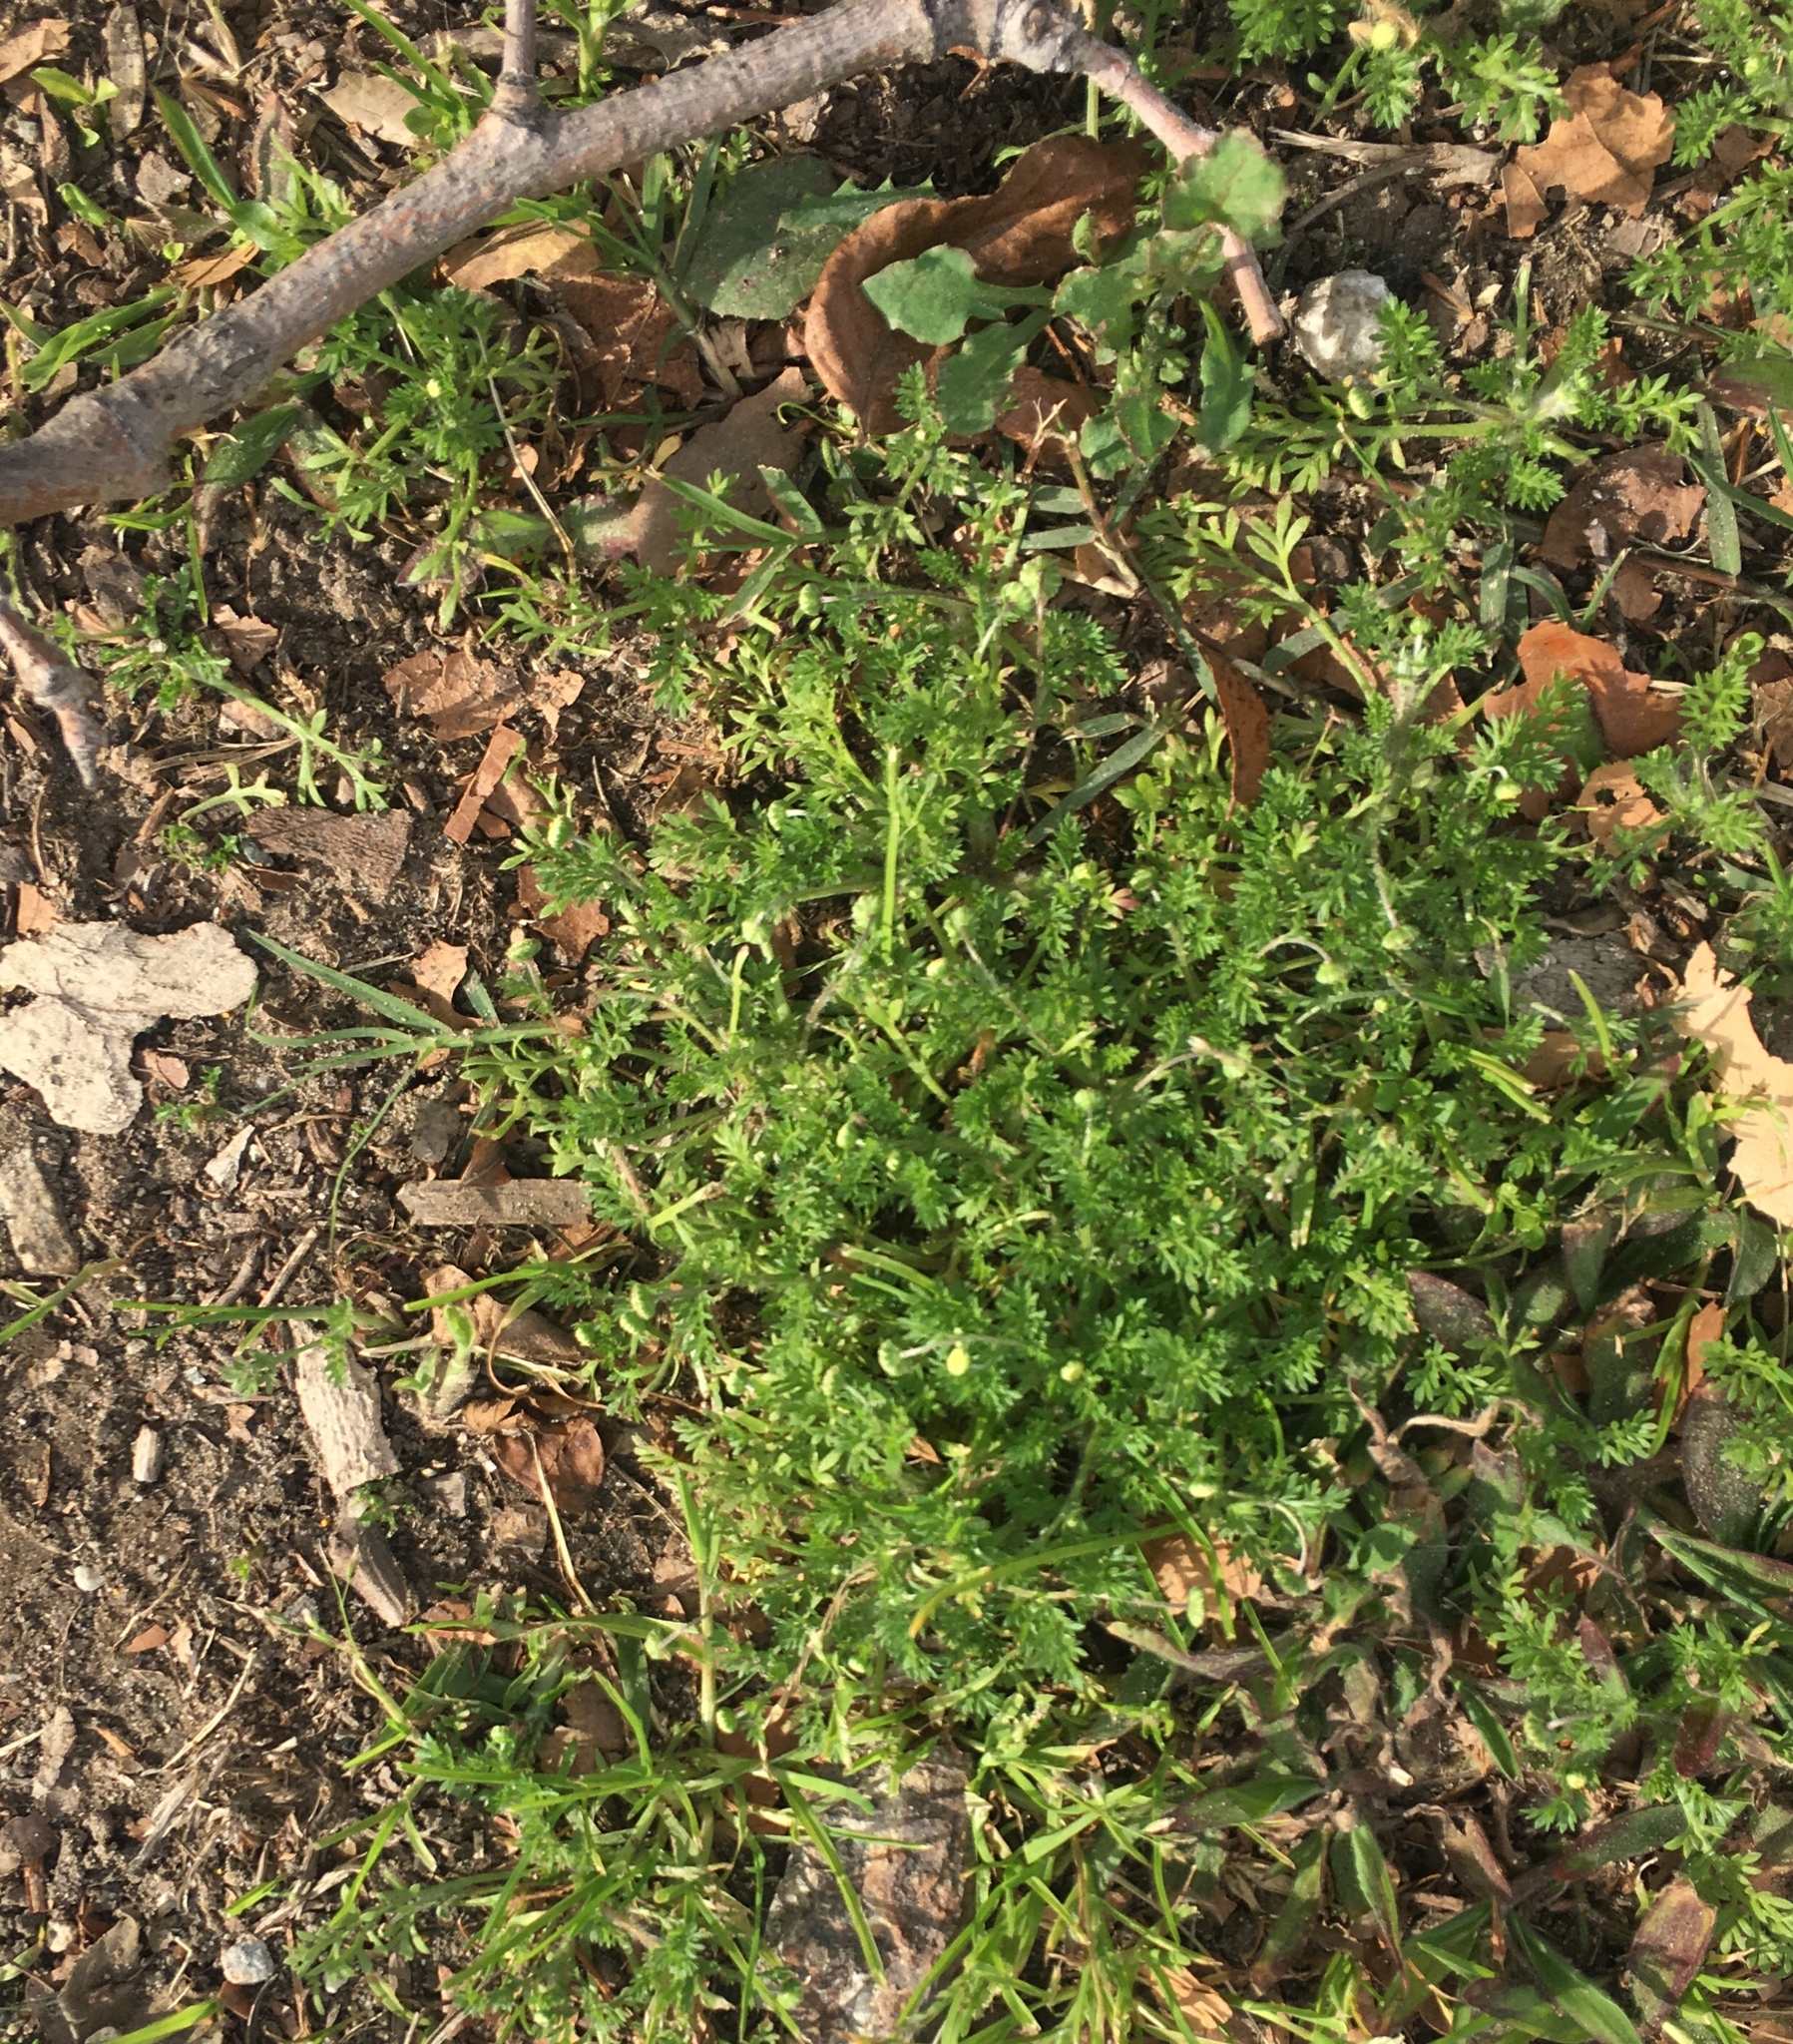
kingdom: Plantae
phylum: Tracheophyta
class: Magnoliopsida
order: Asterales
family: Asteraceae
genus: Cotula
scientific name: Cotula australis
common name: Australian waterbuttons
